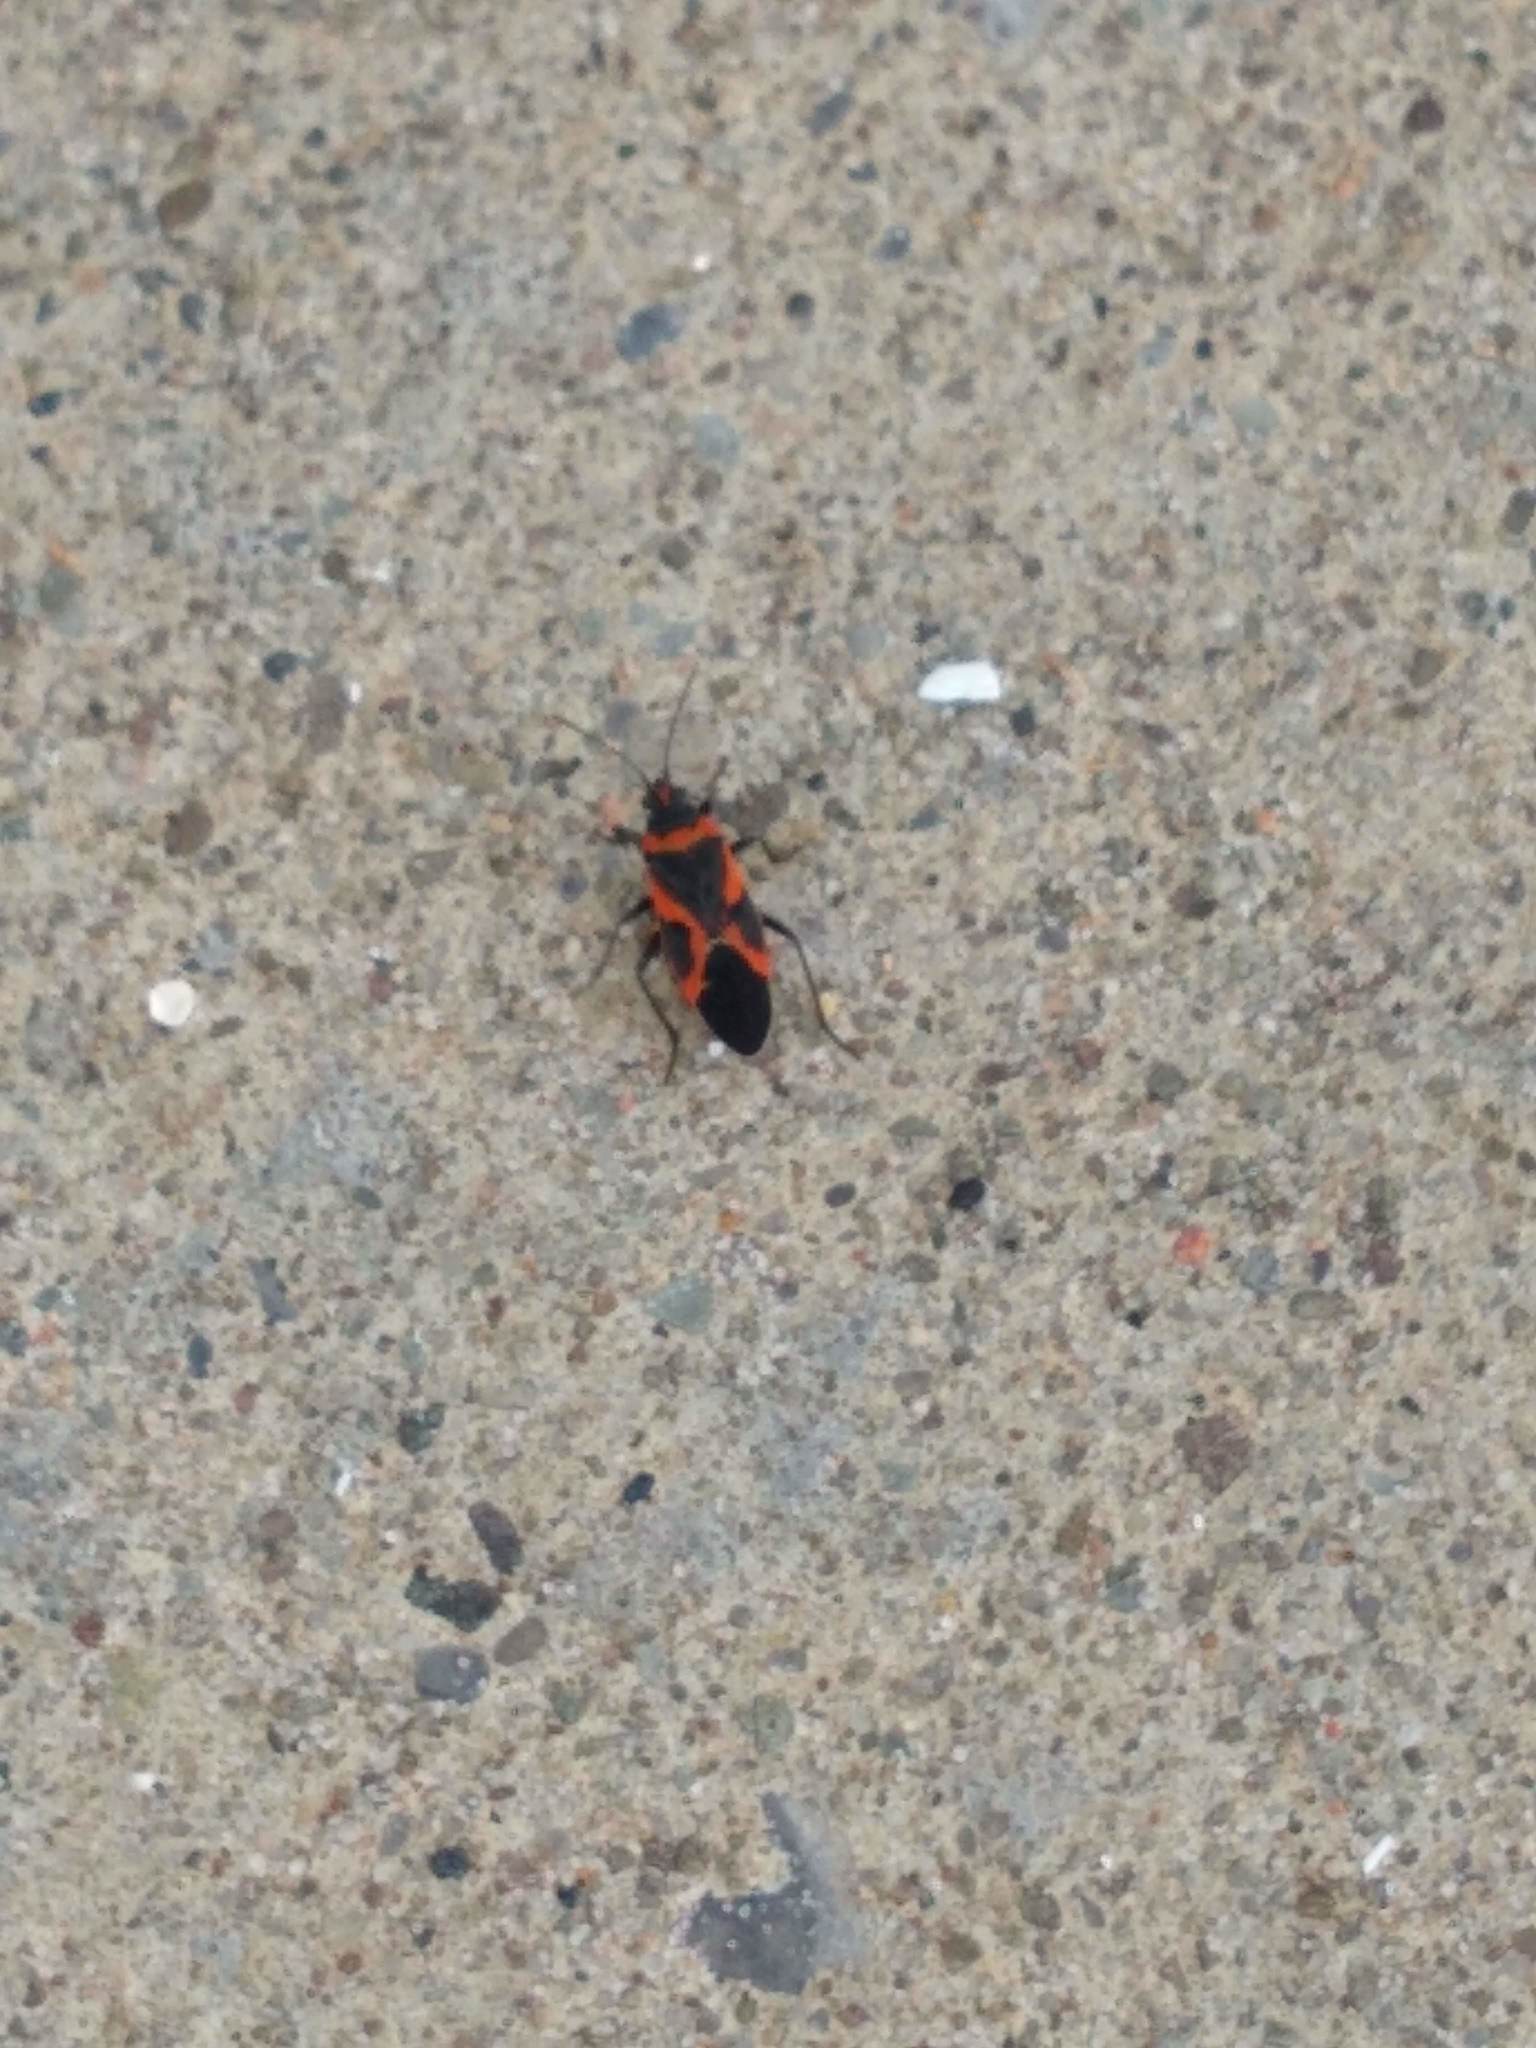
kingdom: Animalia
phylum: Arthropoda
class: Insecta
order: Hemiptera
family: Lygaeidae
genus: Lygaeus
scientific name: Lygaeus kalmii
